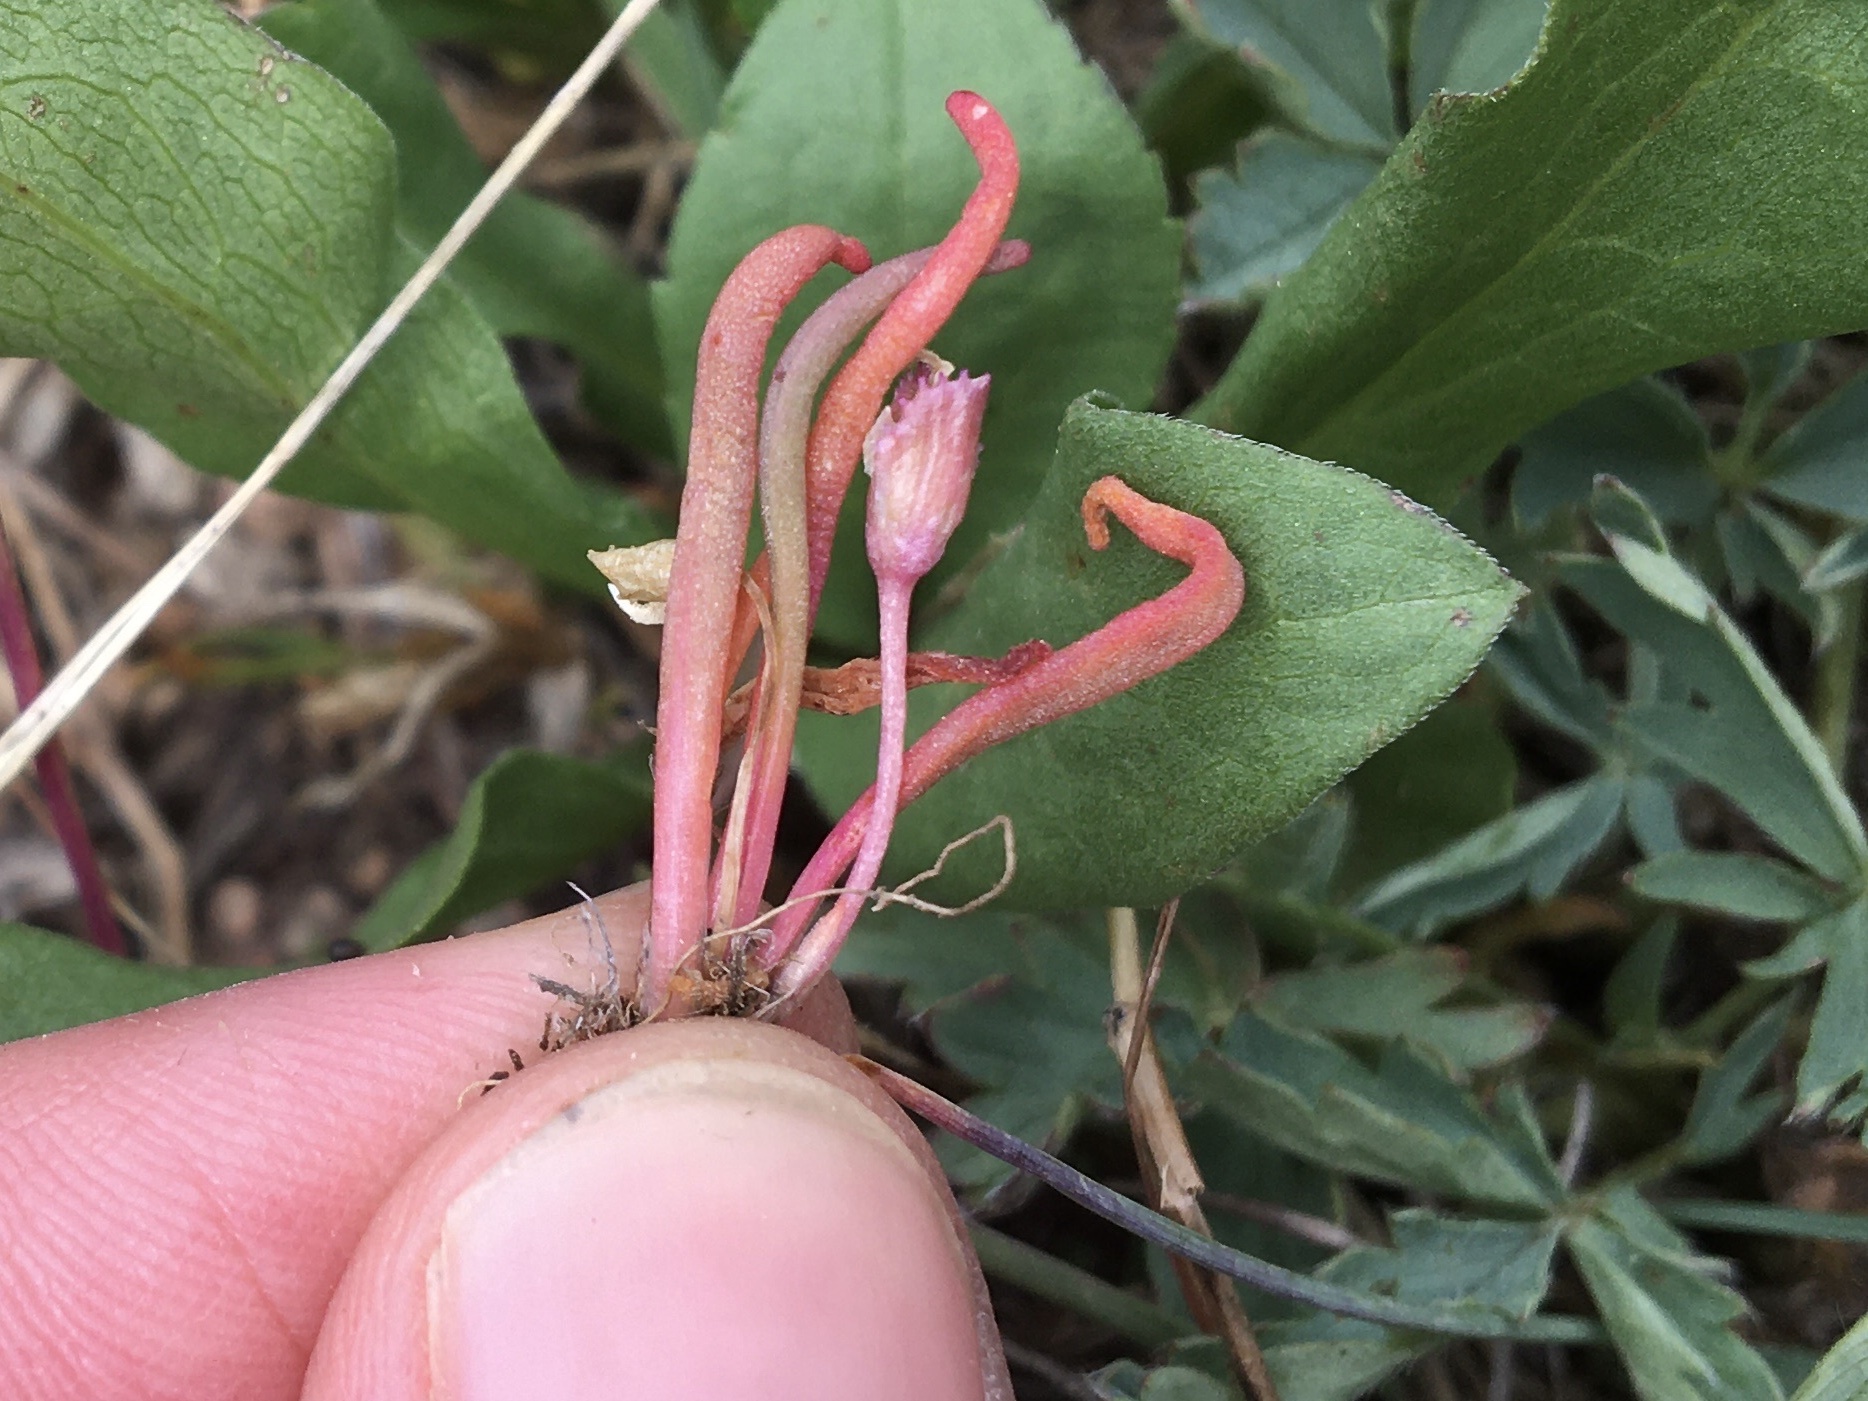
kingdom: Plantae
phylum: Tracheophyta
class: Magnoliopsida
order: Caryophyllales
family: Montiaceae
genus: Lewisia
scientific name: Lewisia pygmaea
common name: Alpine bitterroot
